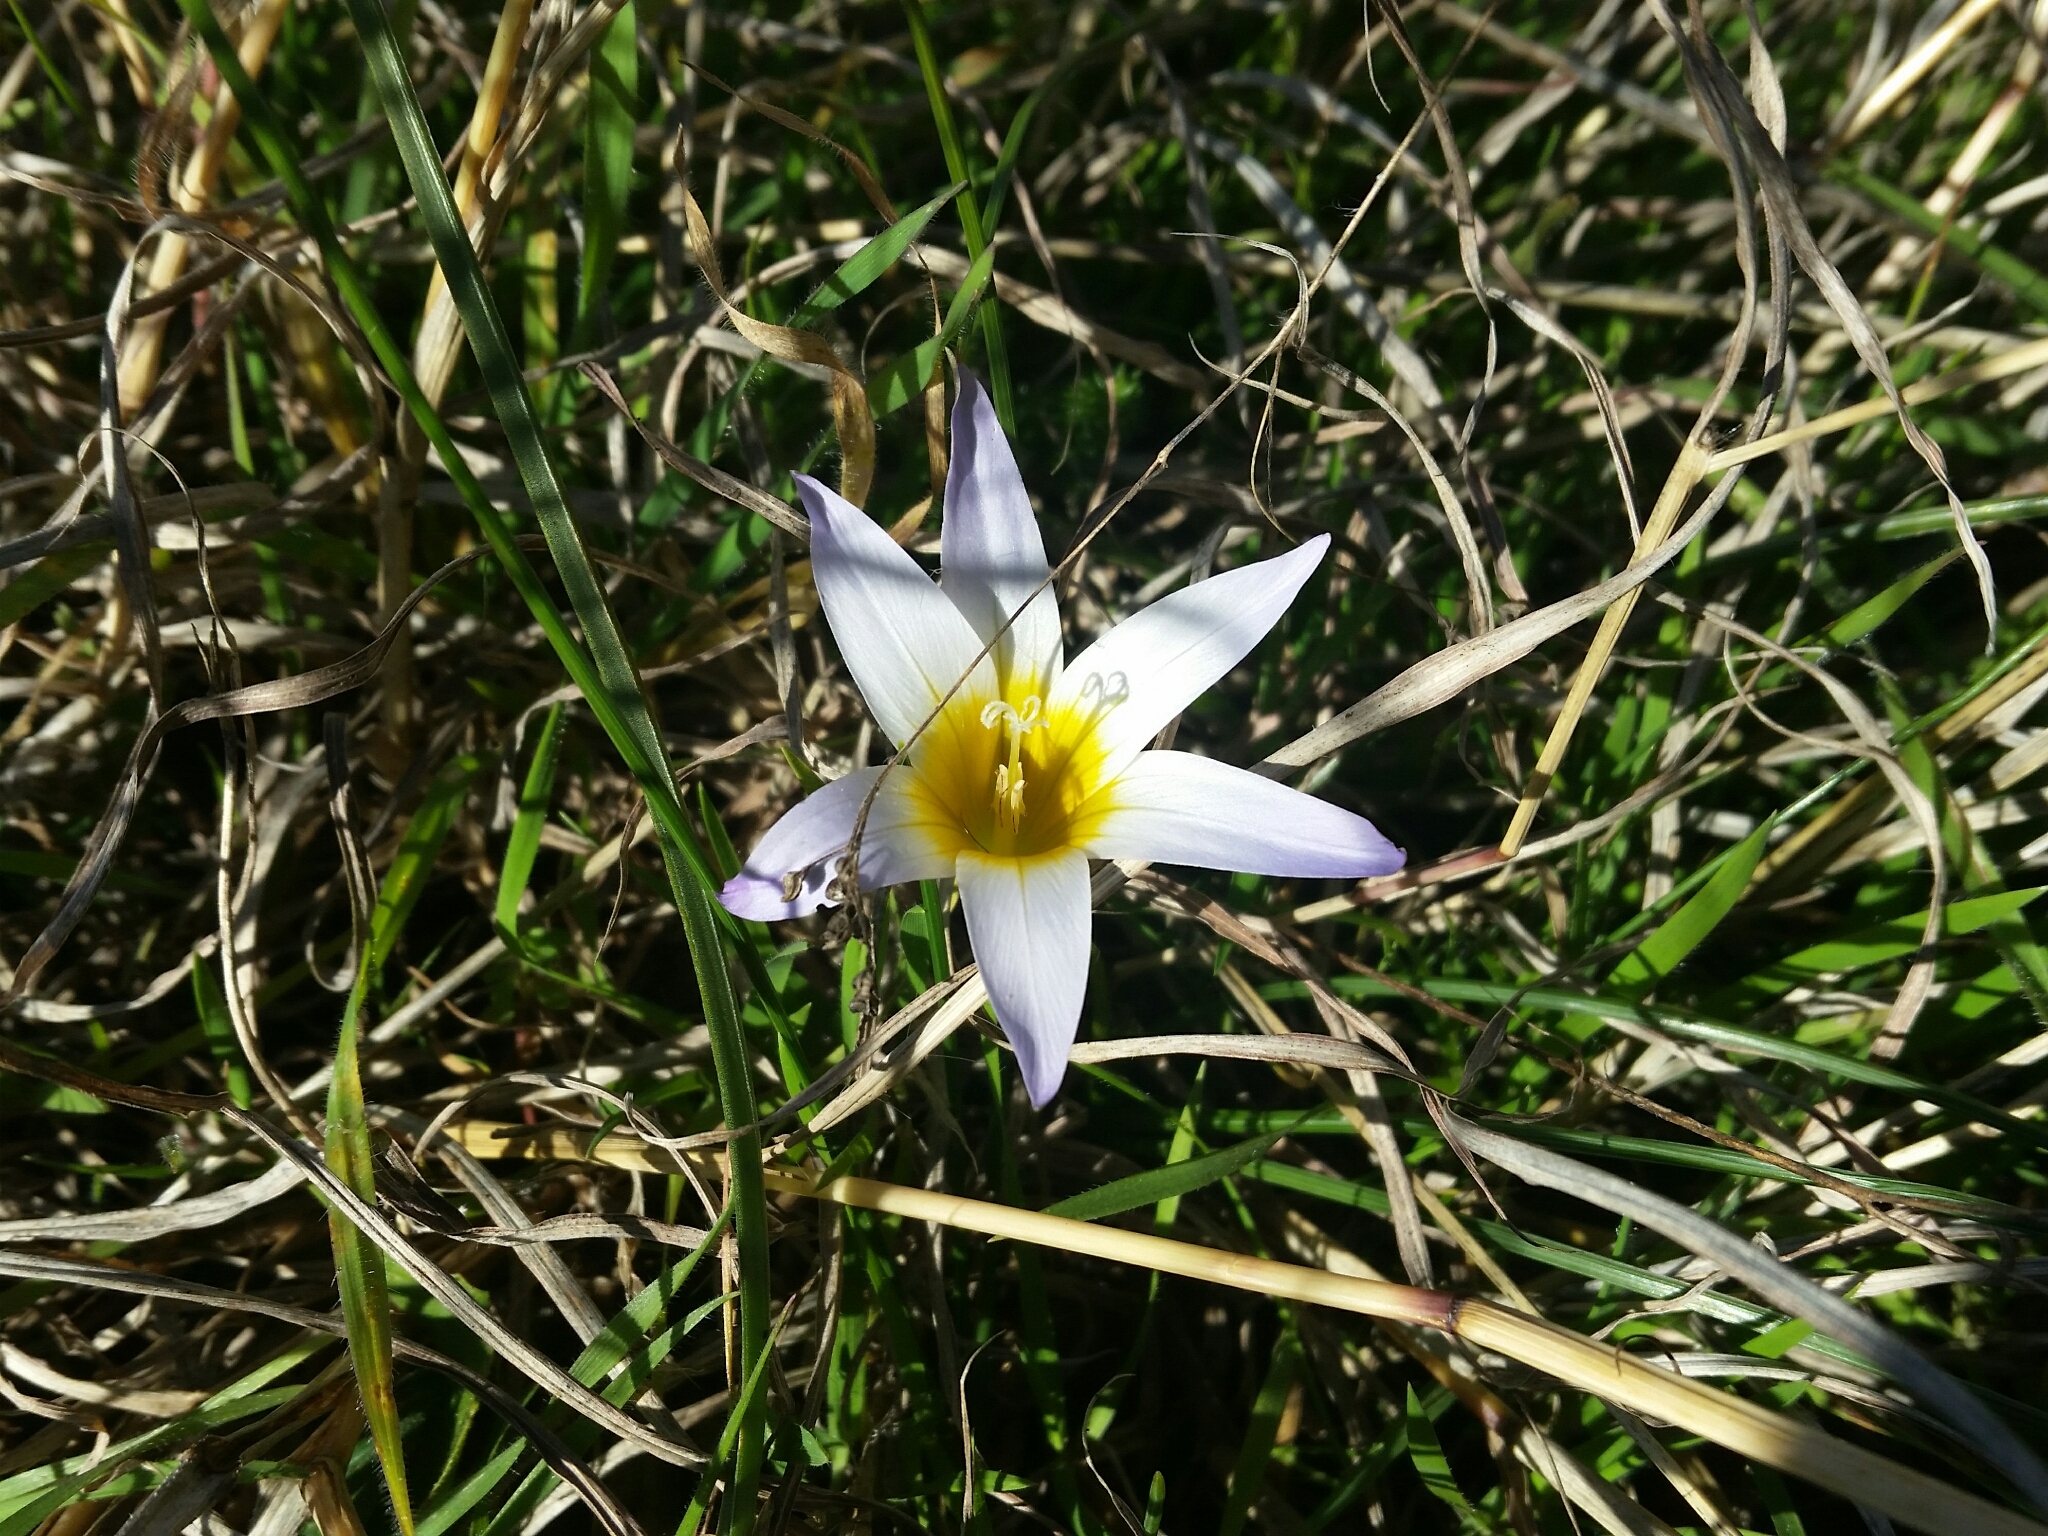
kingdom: Plantae
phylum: Tracheophyta
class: Liliopsida
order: Asparagales
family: Iridaceae
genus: Romulea
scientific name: Romulea bulbocodium
